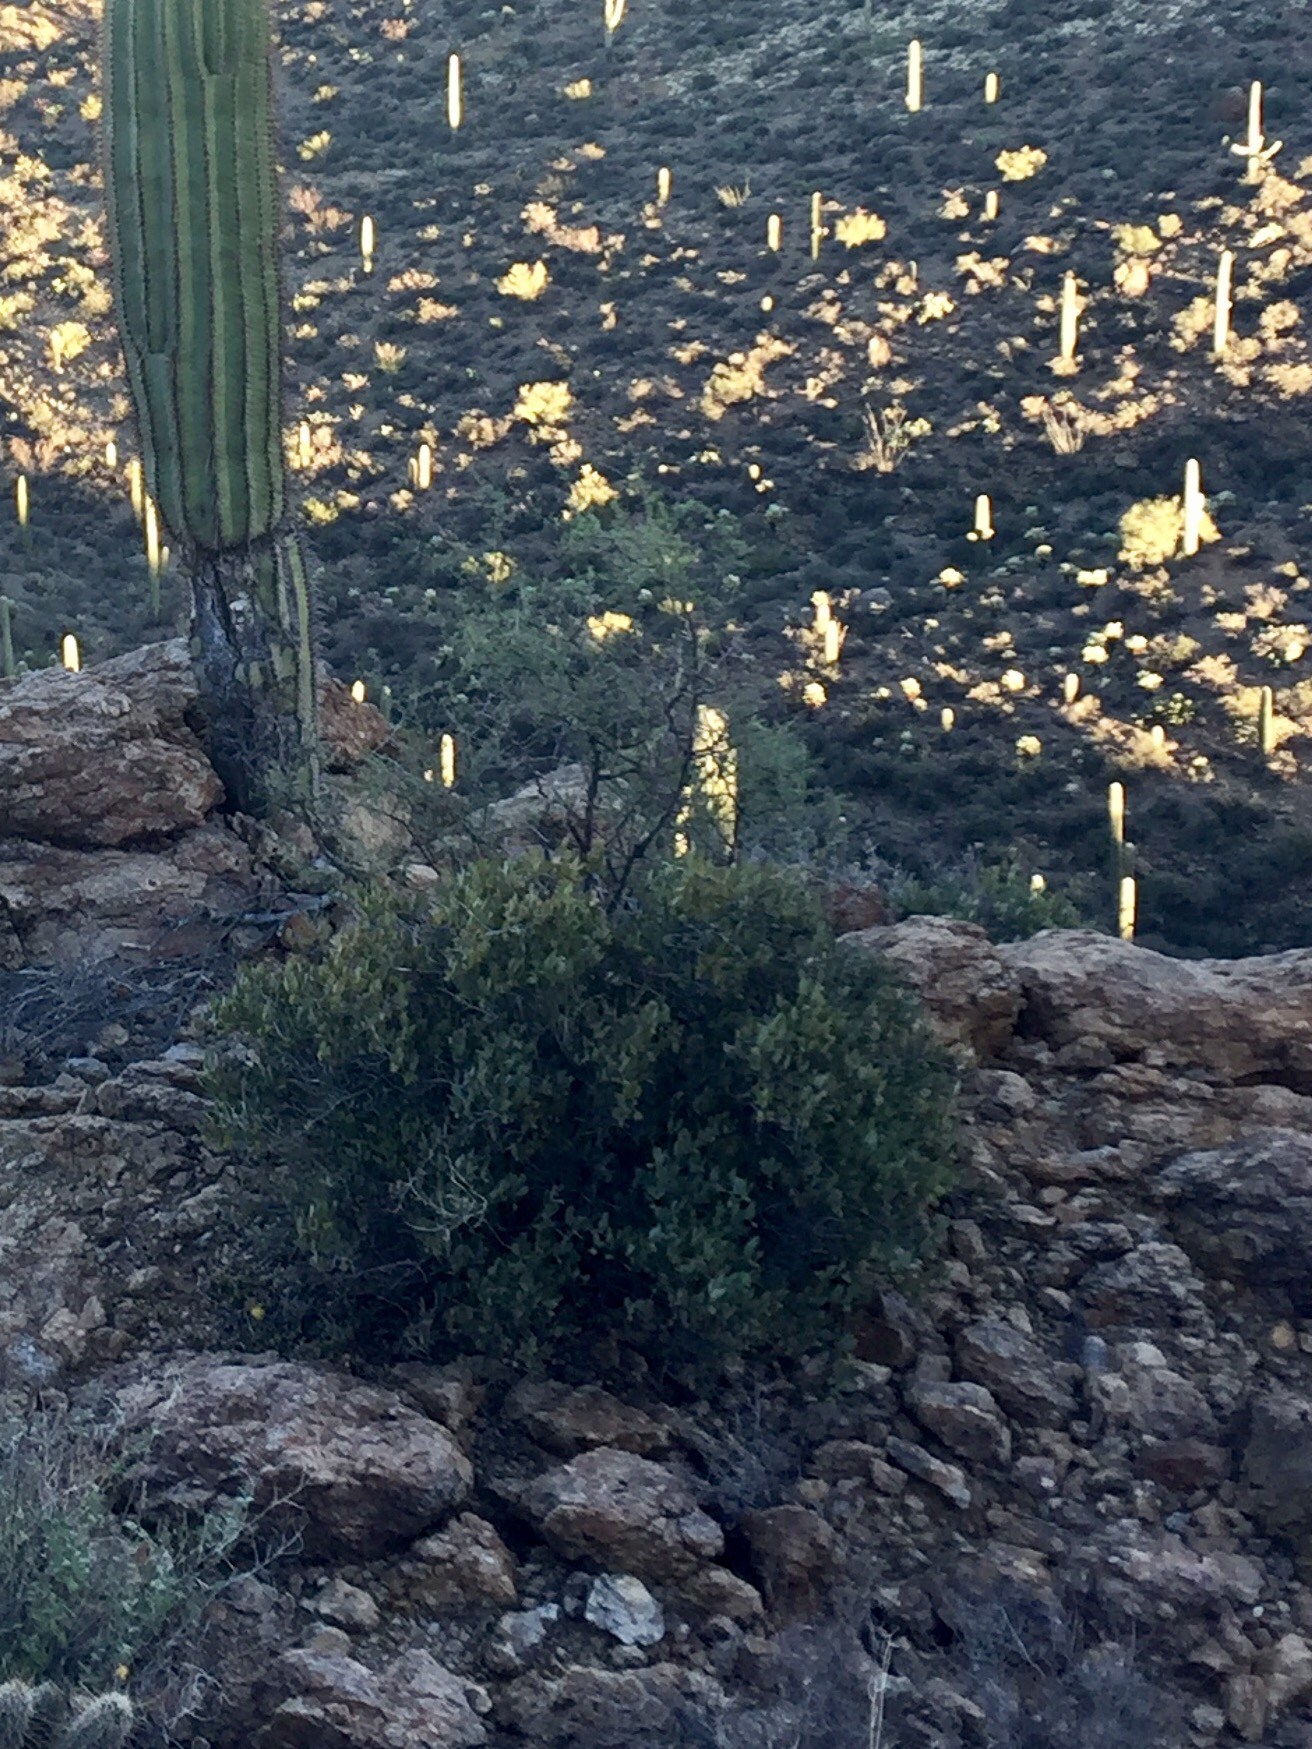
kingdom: Plantae
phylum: Tracheophyta
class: Magnoliopsida
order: Caryophyllales
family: Simmondsiaceae
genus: Simmondsia
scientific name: Simmondsia chinensis
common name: Jojoba
